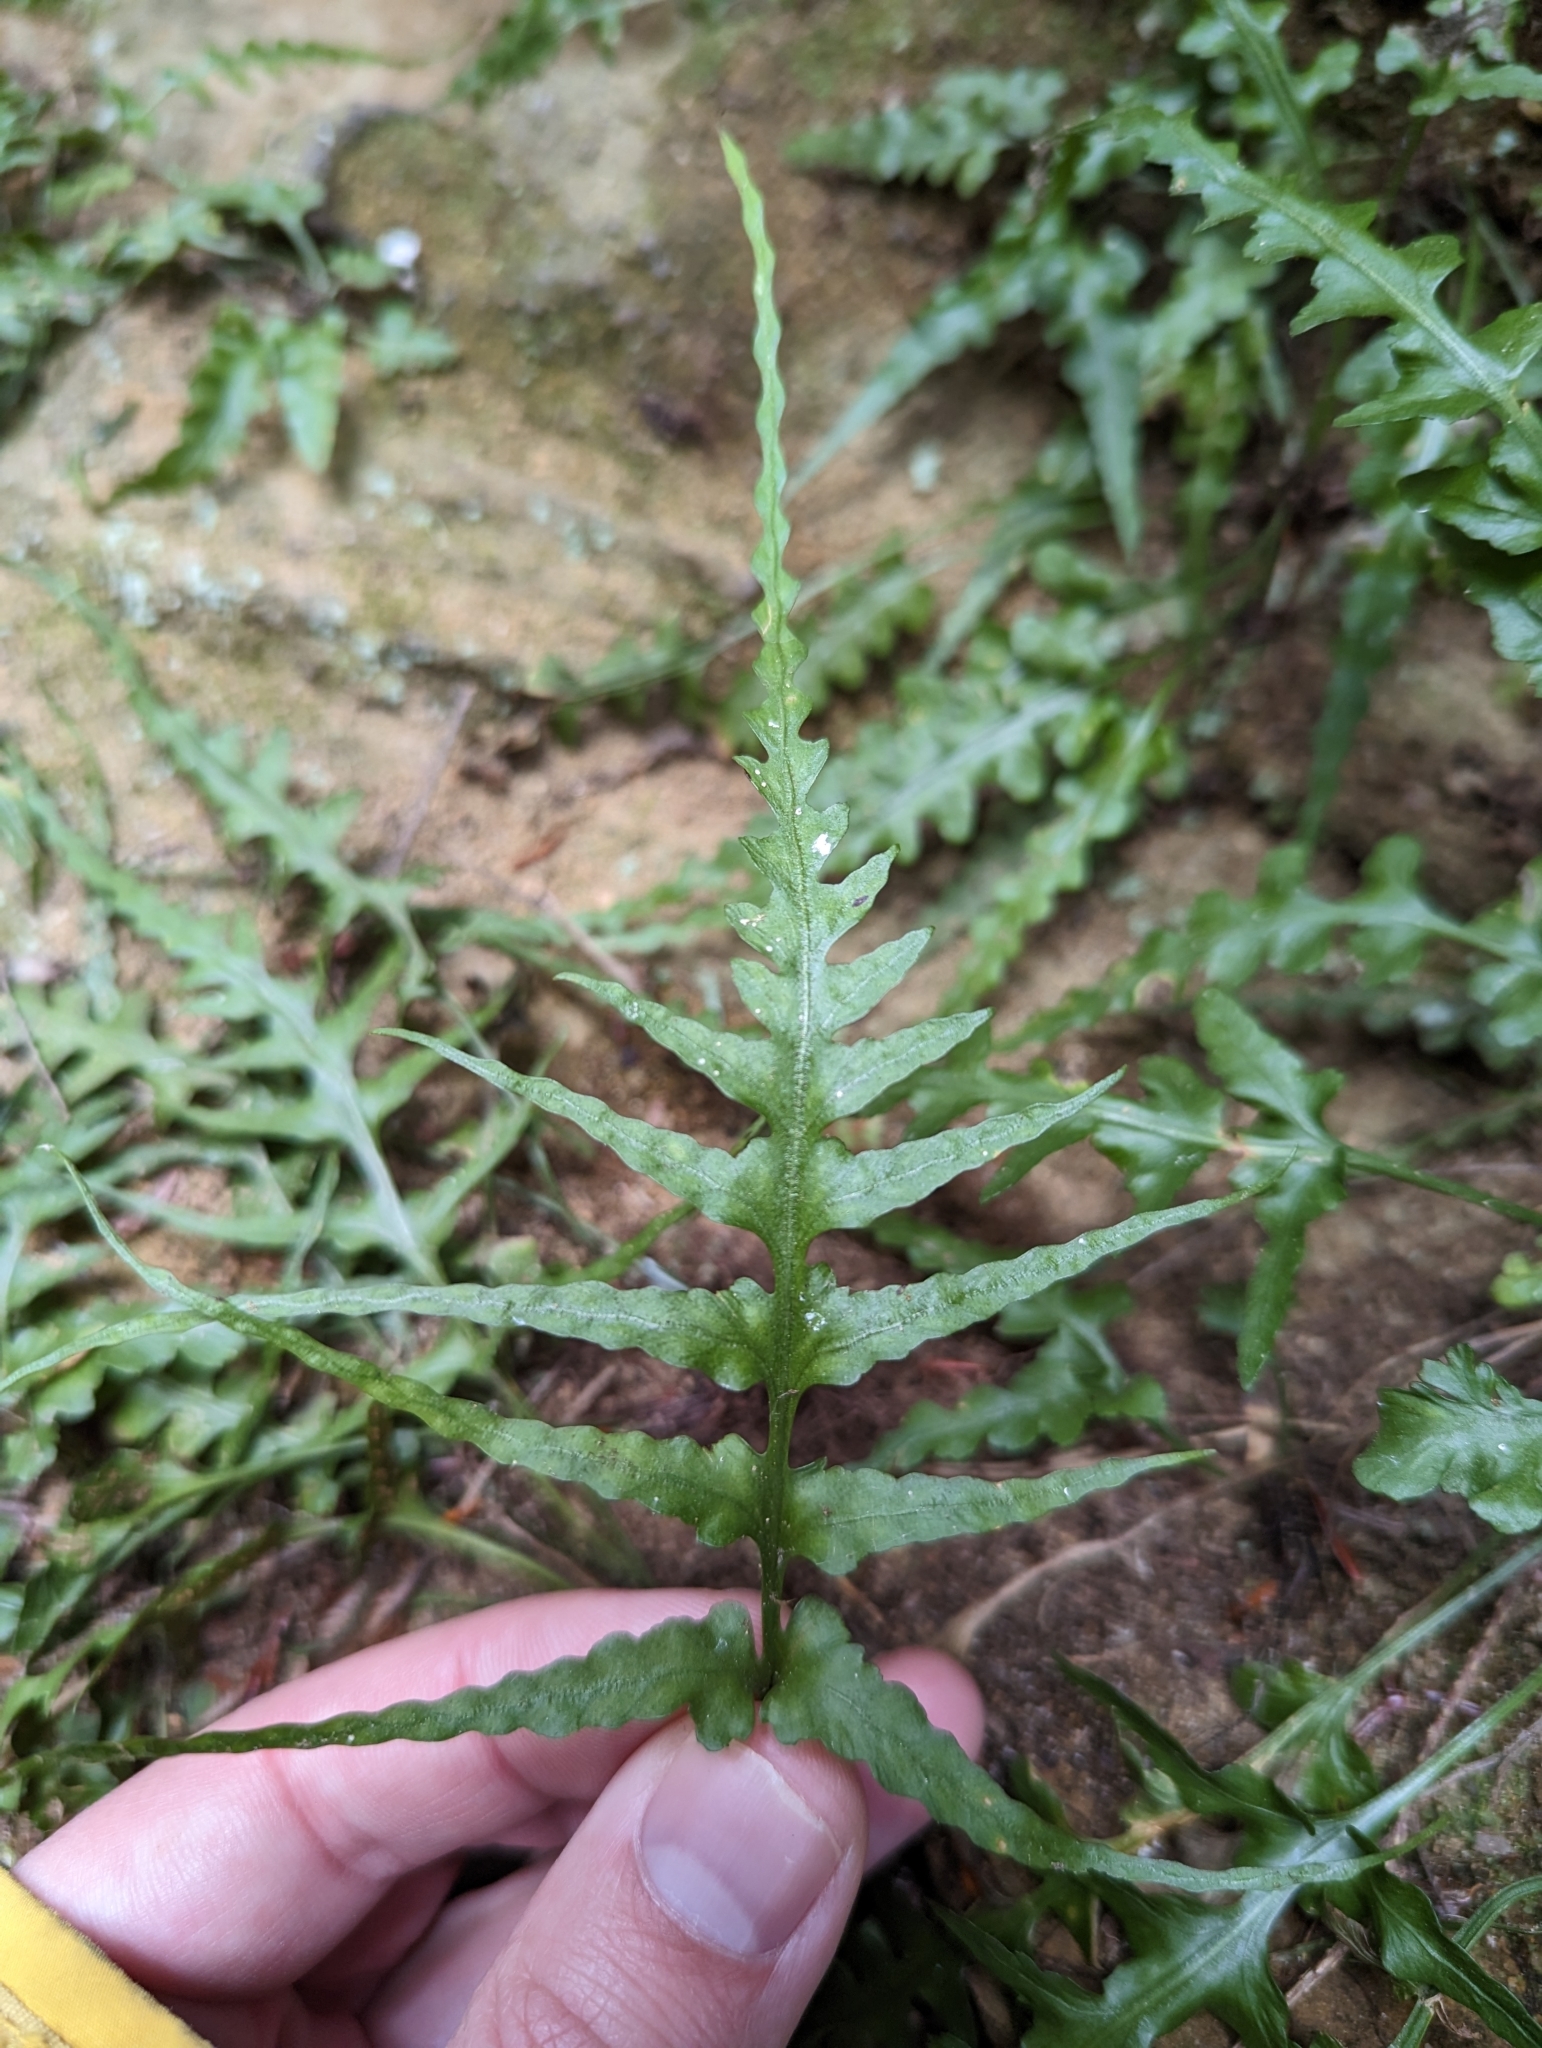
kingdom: Plantae
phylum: Tracheophyta
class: Polypodiopsida
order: Polypodiales
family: Aspleniaceae
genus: Asplenium
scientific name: Asplenium pinnatifidum
